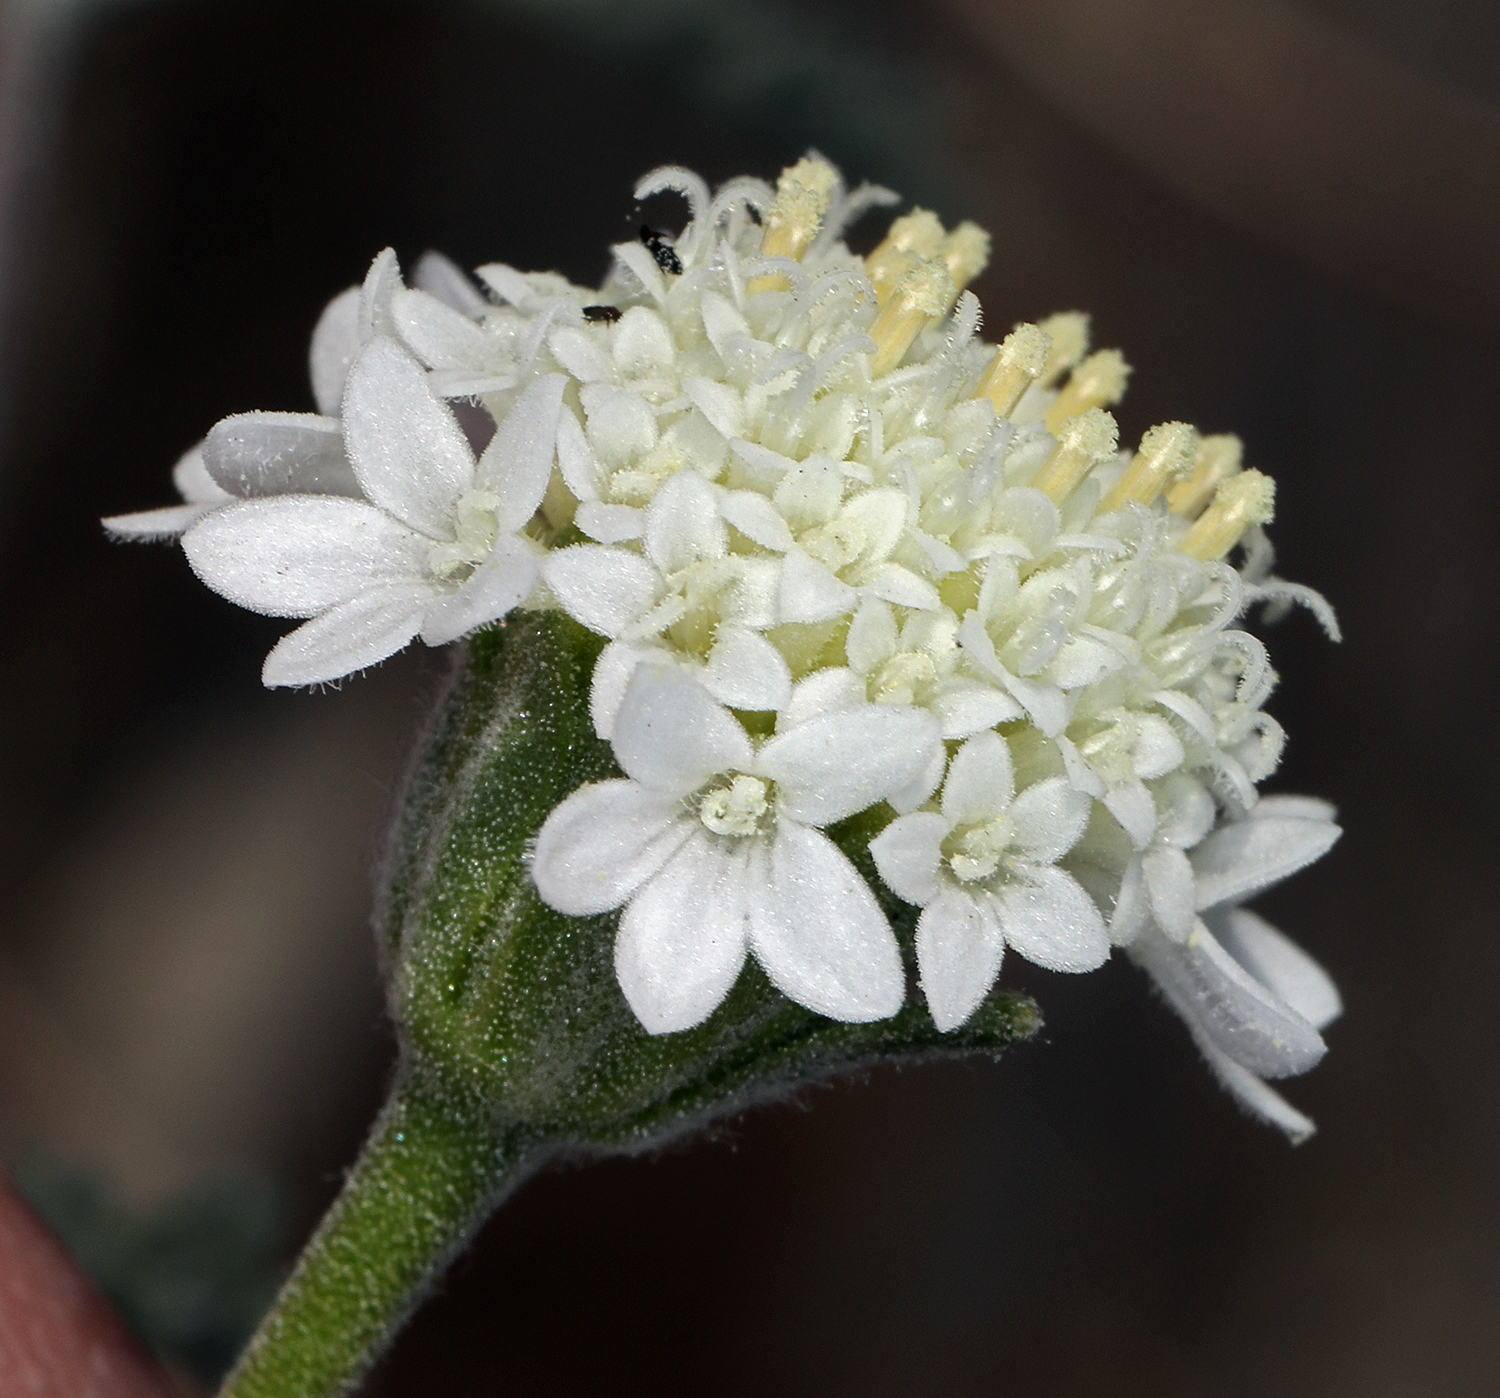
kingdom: Plantae
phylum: Tracheophyta
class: Magnoliopsida
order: Asterales
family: Asteraceae
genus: Chaenactis
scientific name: Chaenactis stevioides
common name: Desert pincushion
